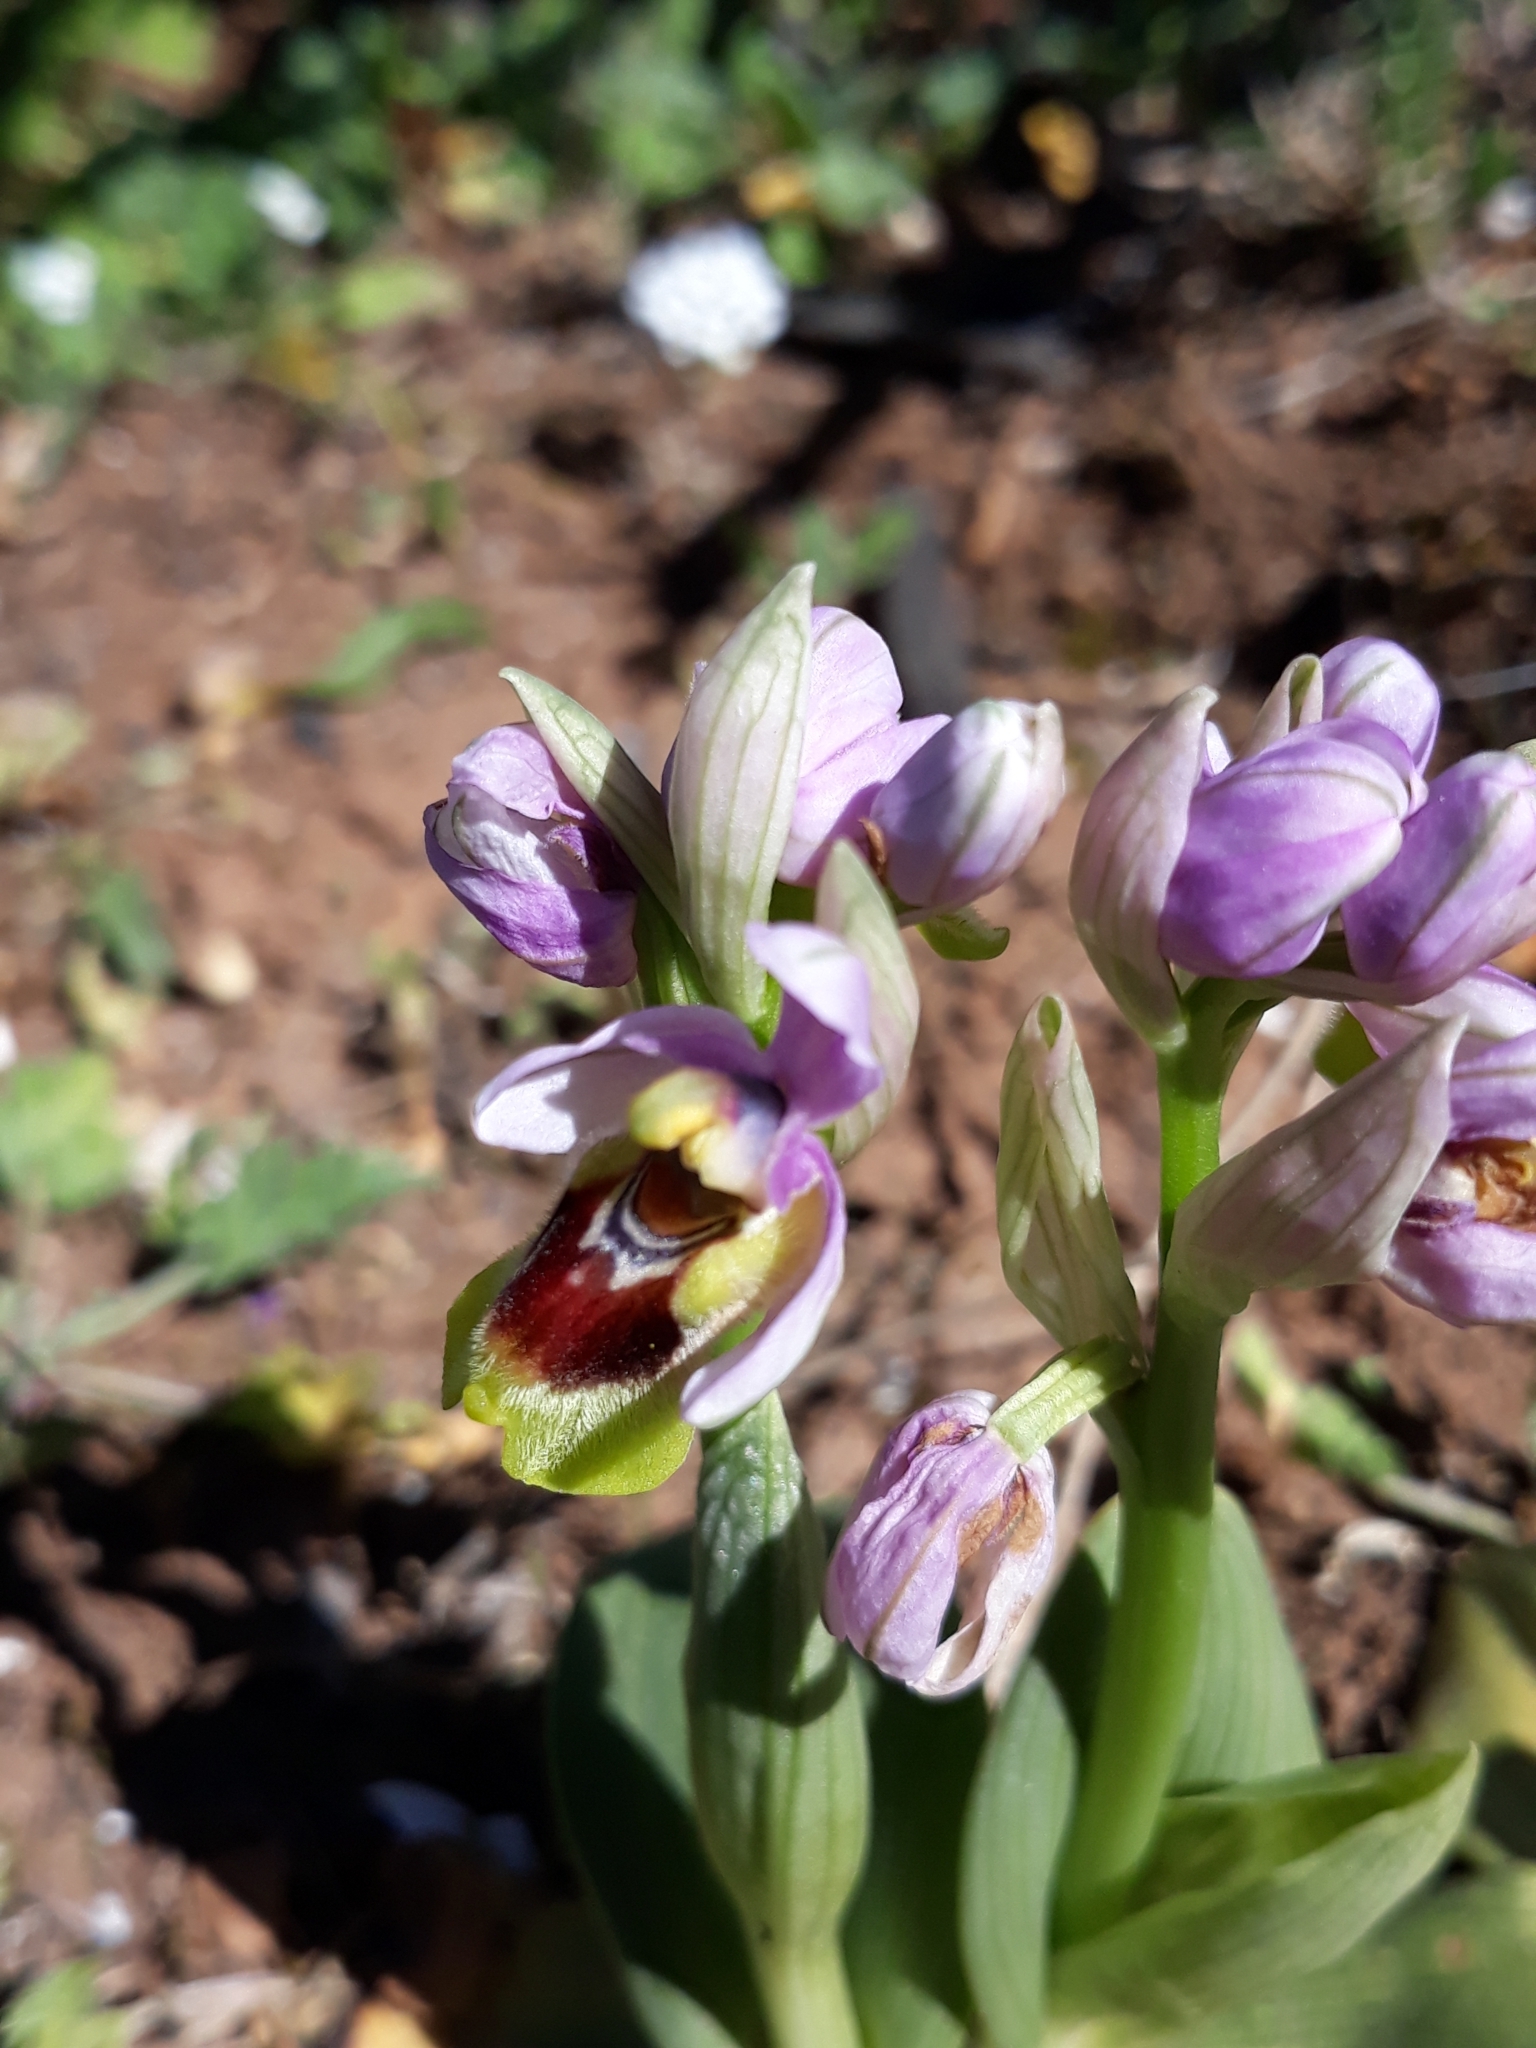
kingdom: Plantae
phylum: Tracheophyta
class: Liliopsida
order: Asparagales
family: Orchidaceae
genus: Ophrys
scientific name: Ophrys tenthredinifera
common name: Sawfly orchid
